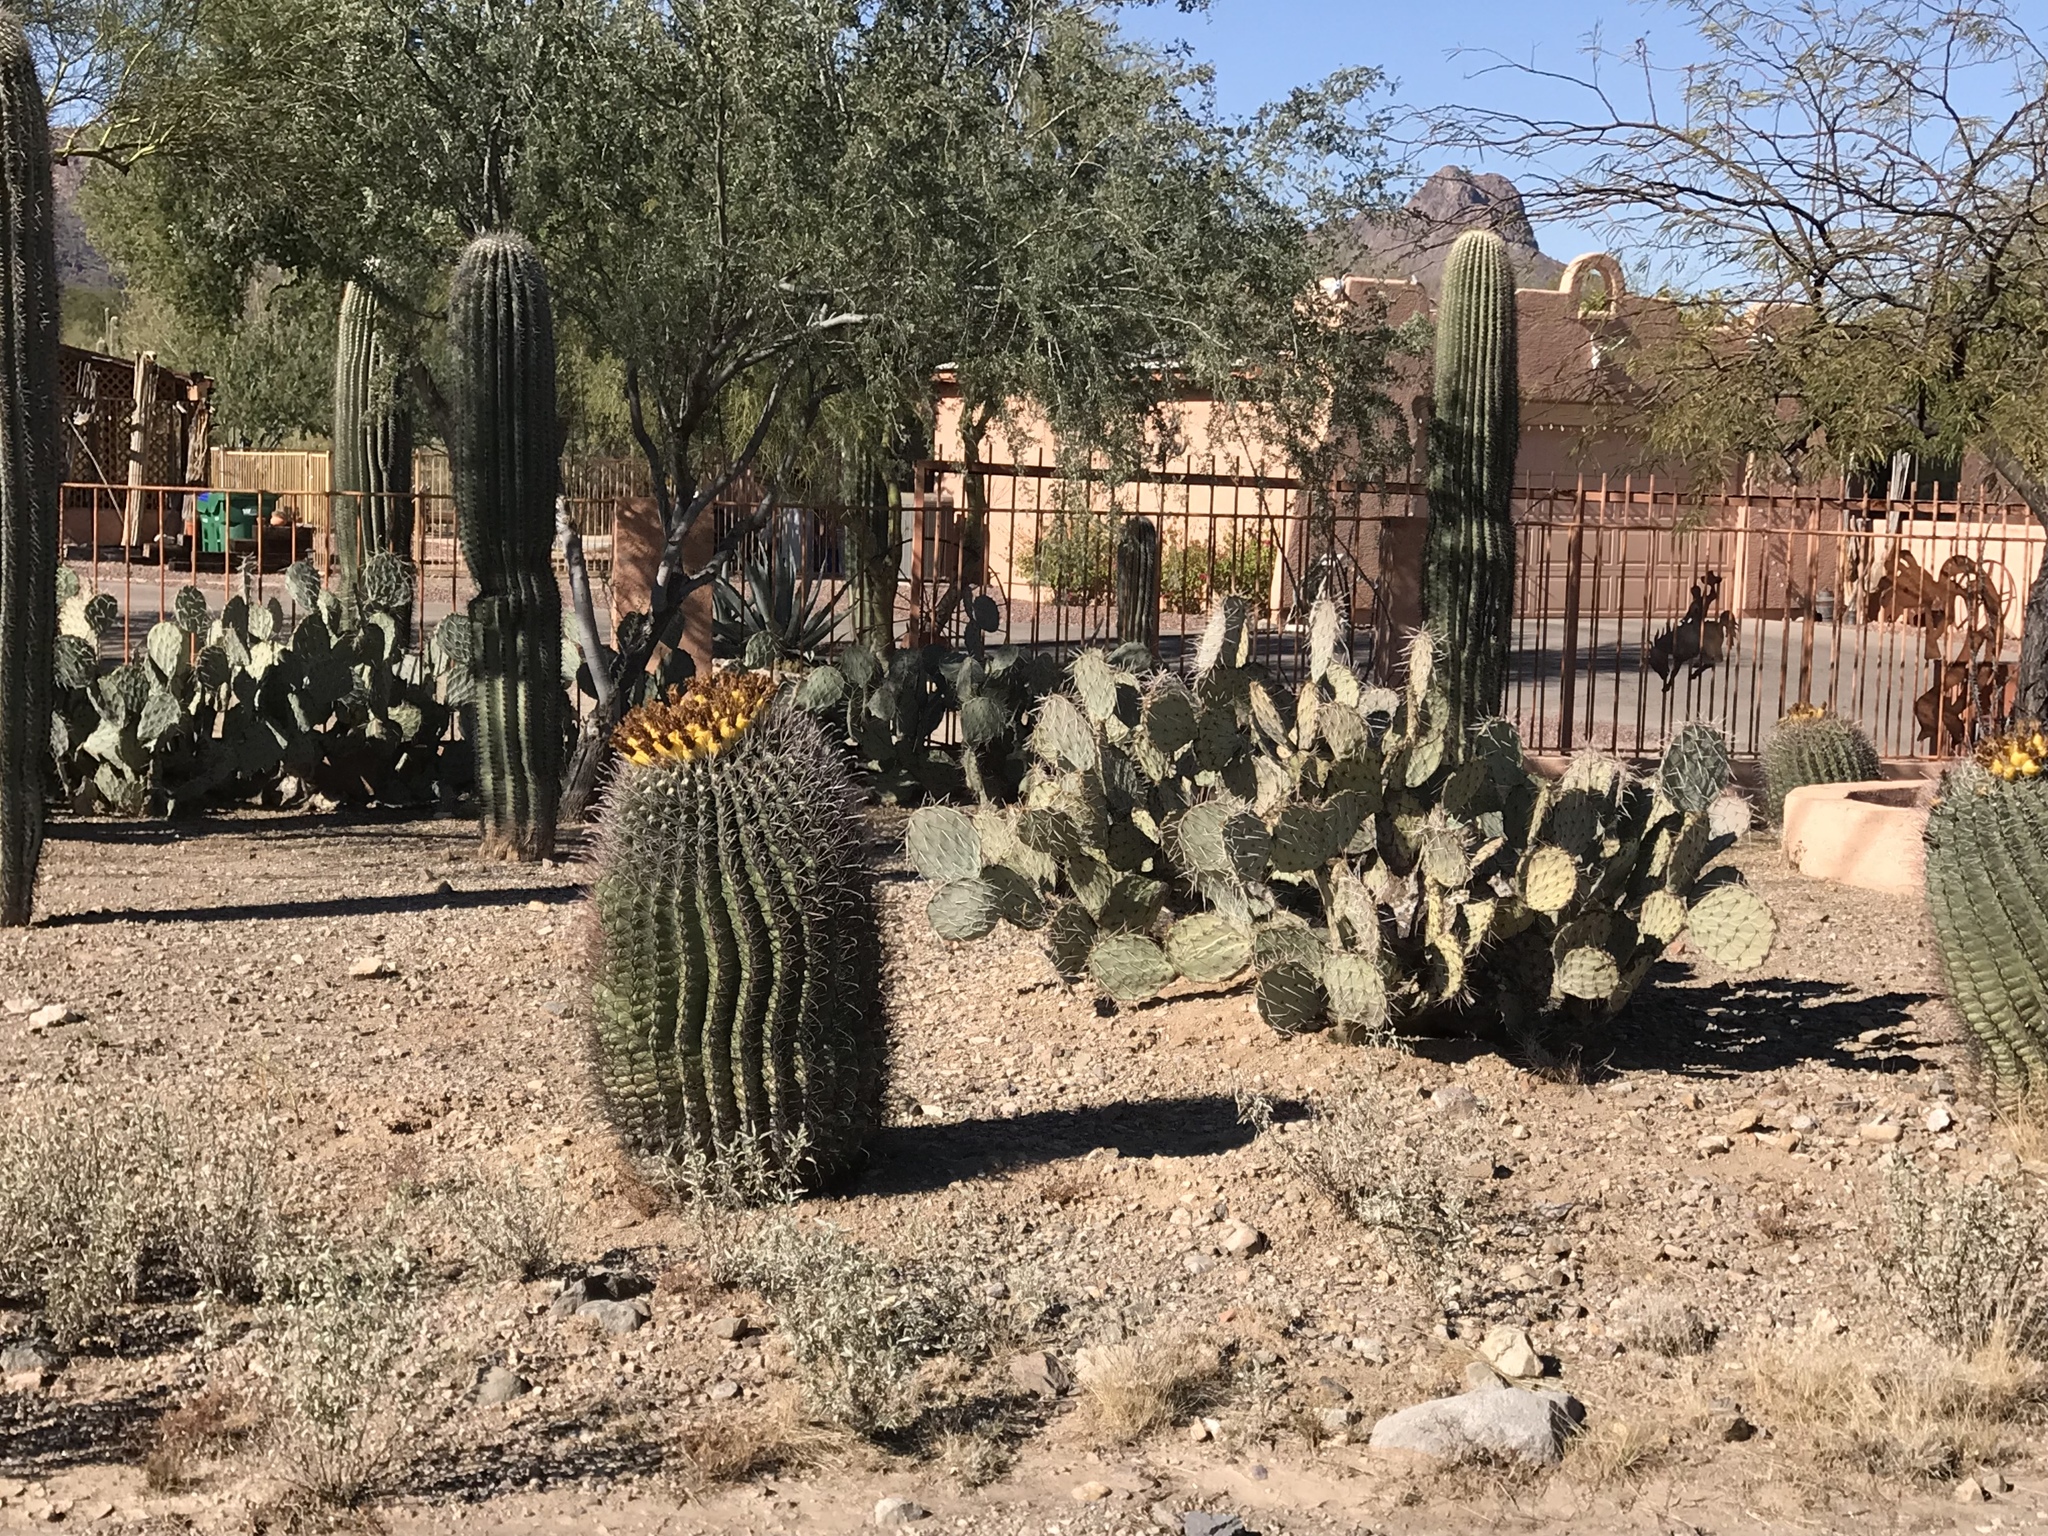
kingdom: Plantae
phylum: Tracheophyta
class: Magnoliopsida
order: Caryophyllales
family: Cactaceae
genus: Ferocactus
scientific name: Ferocactus wislizeni
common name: Candy barrel cactus
